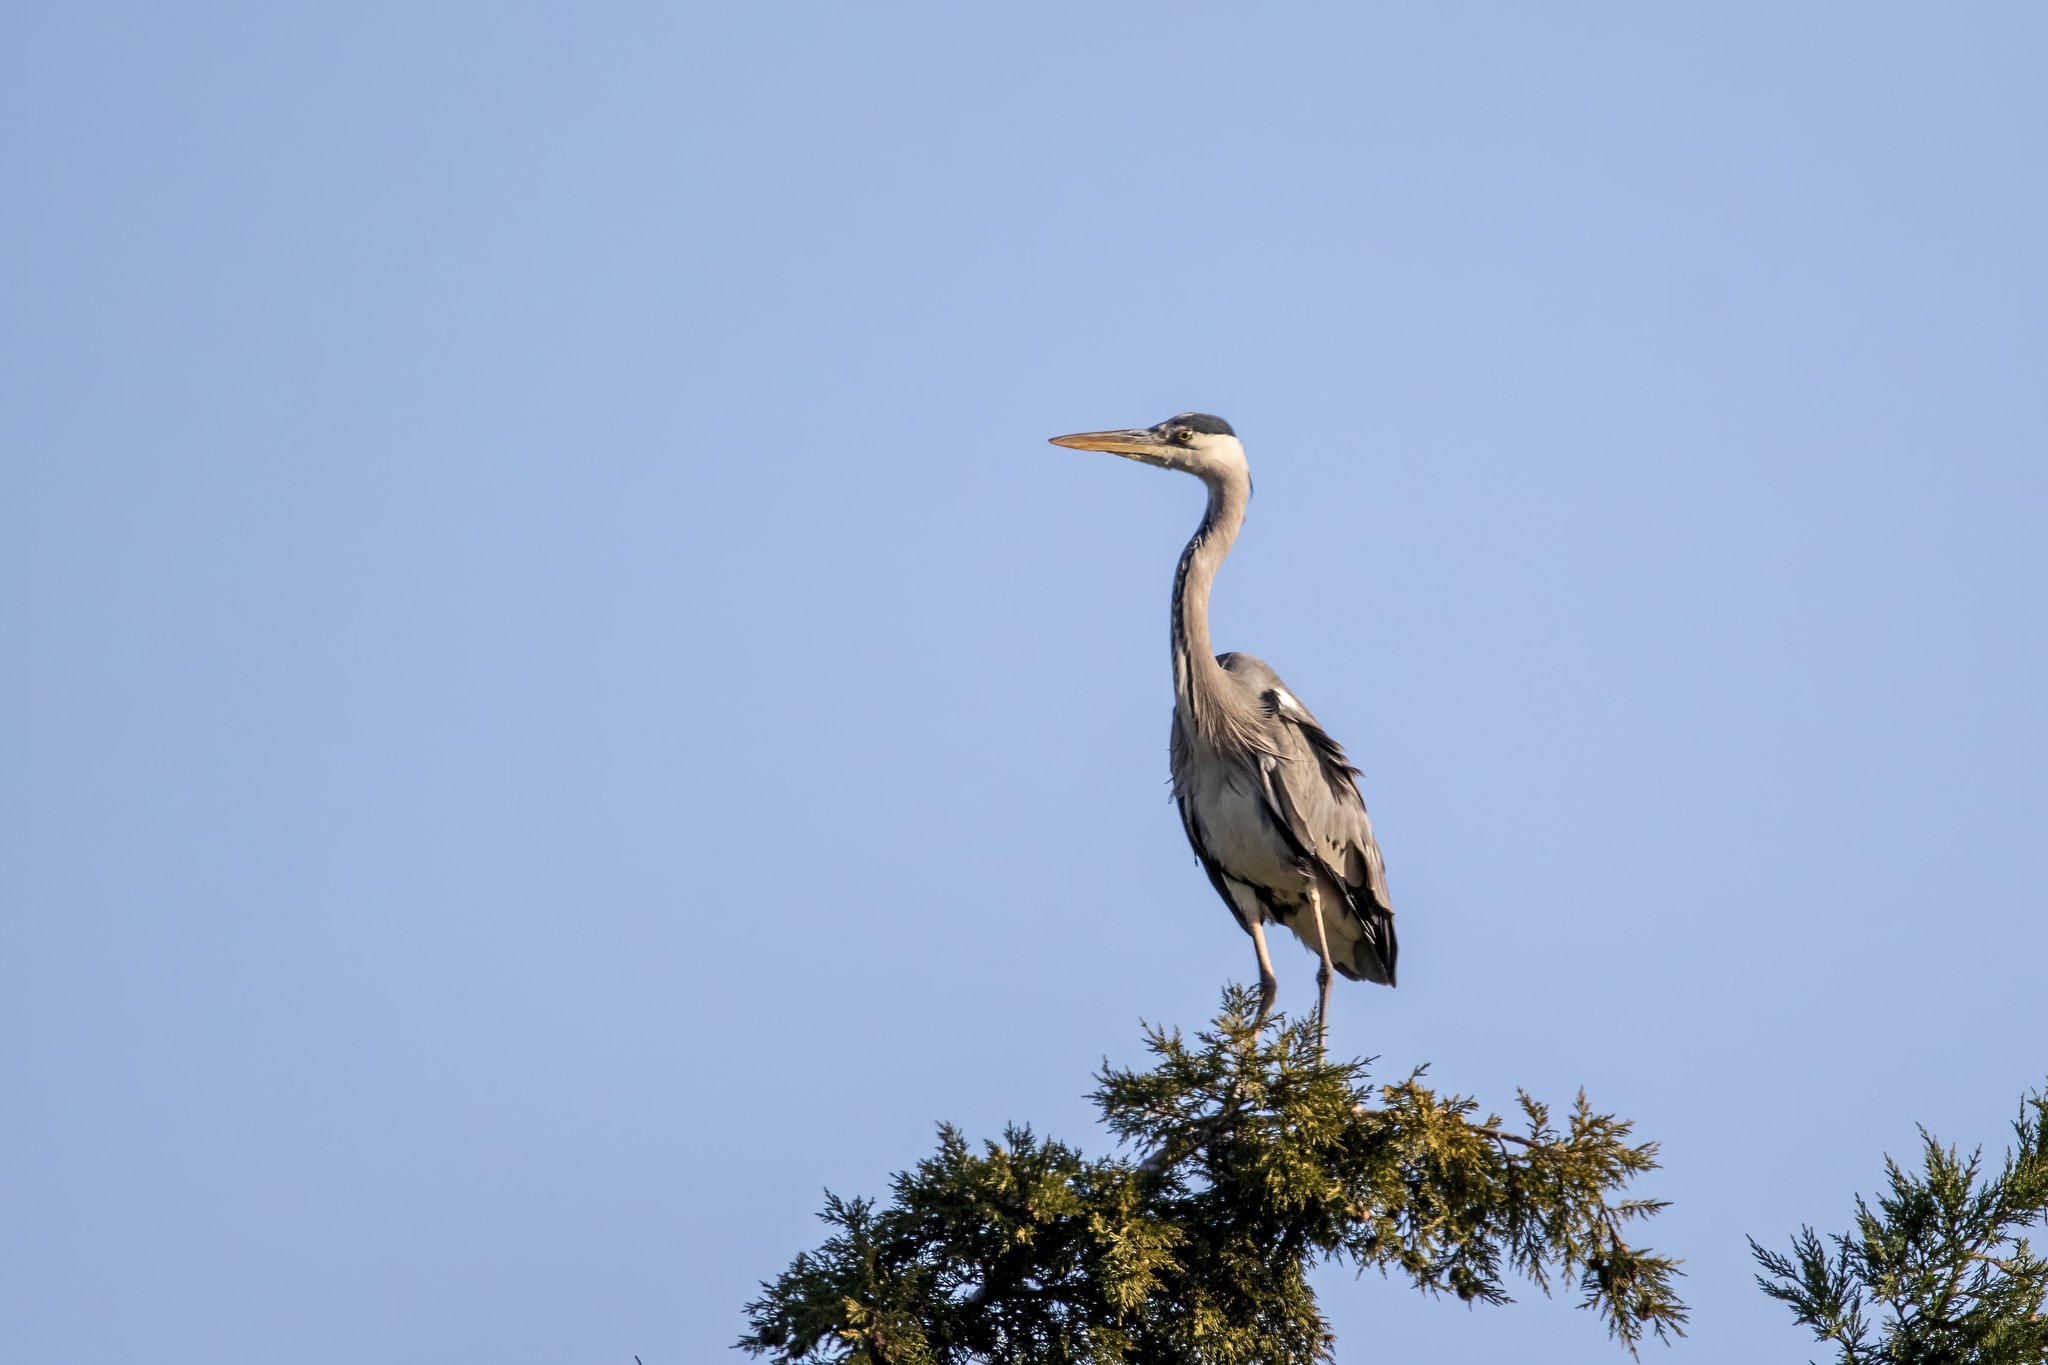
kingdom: Animalia
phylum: Chordata
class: Aves
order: Pelecaniformes
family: Ardeidae
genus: Ardea
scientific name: Ardea cinerea
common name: Grey heron
